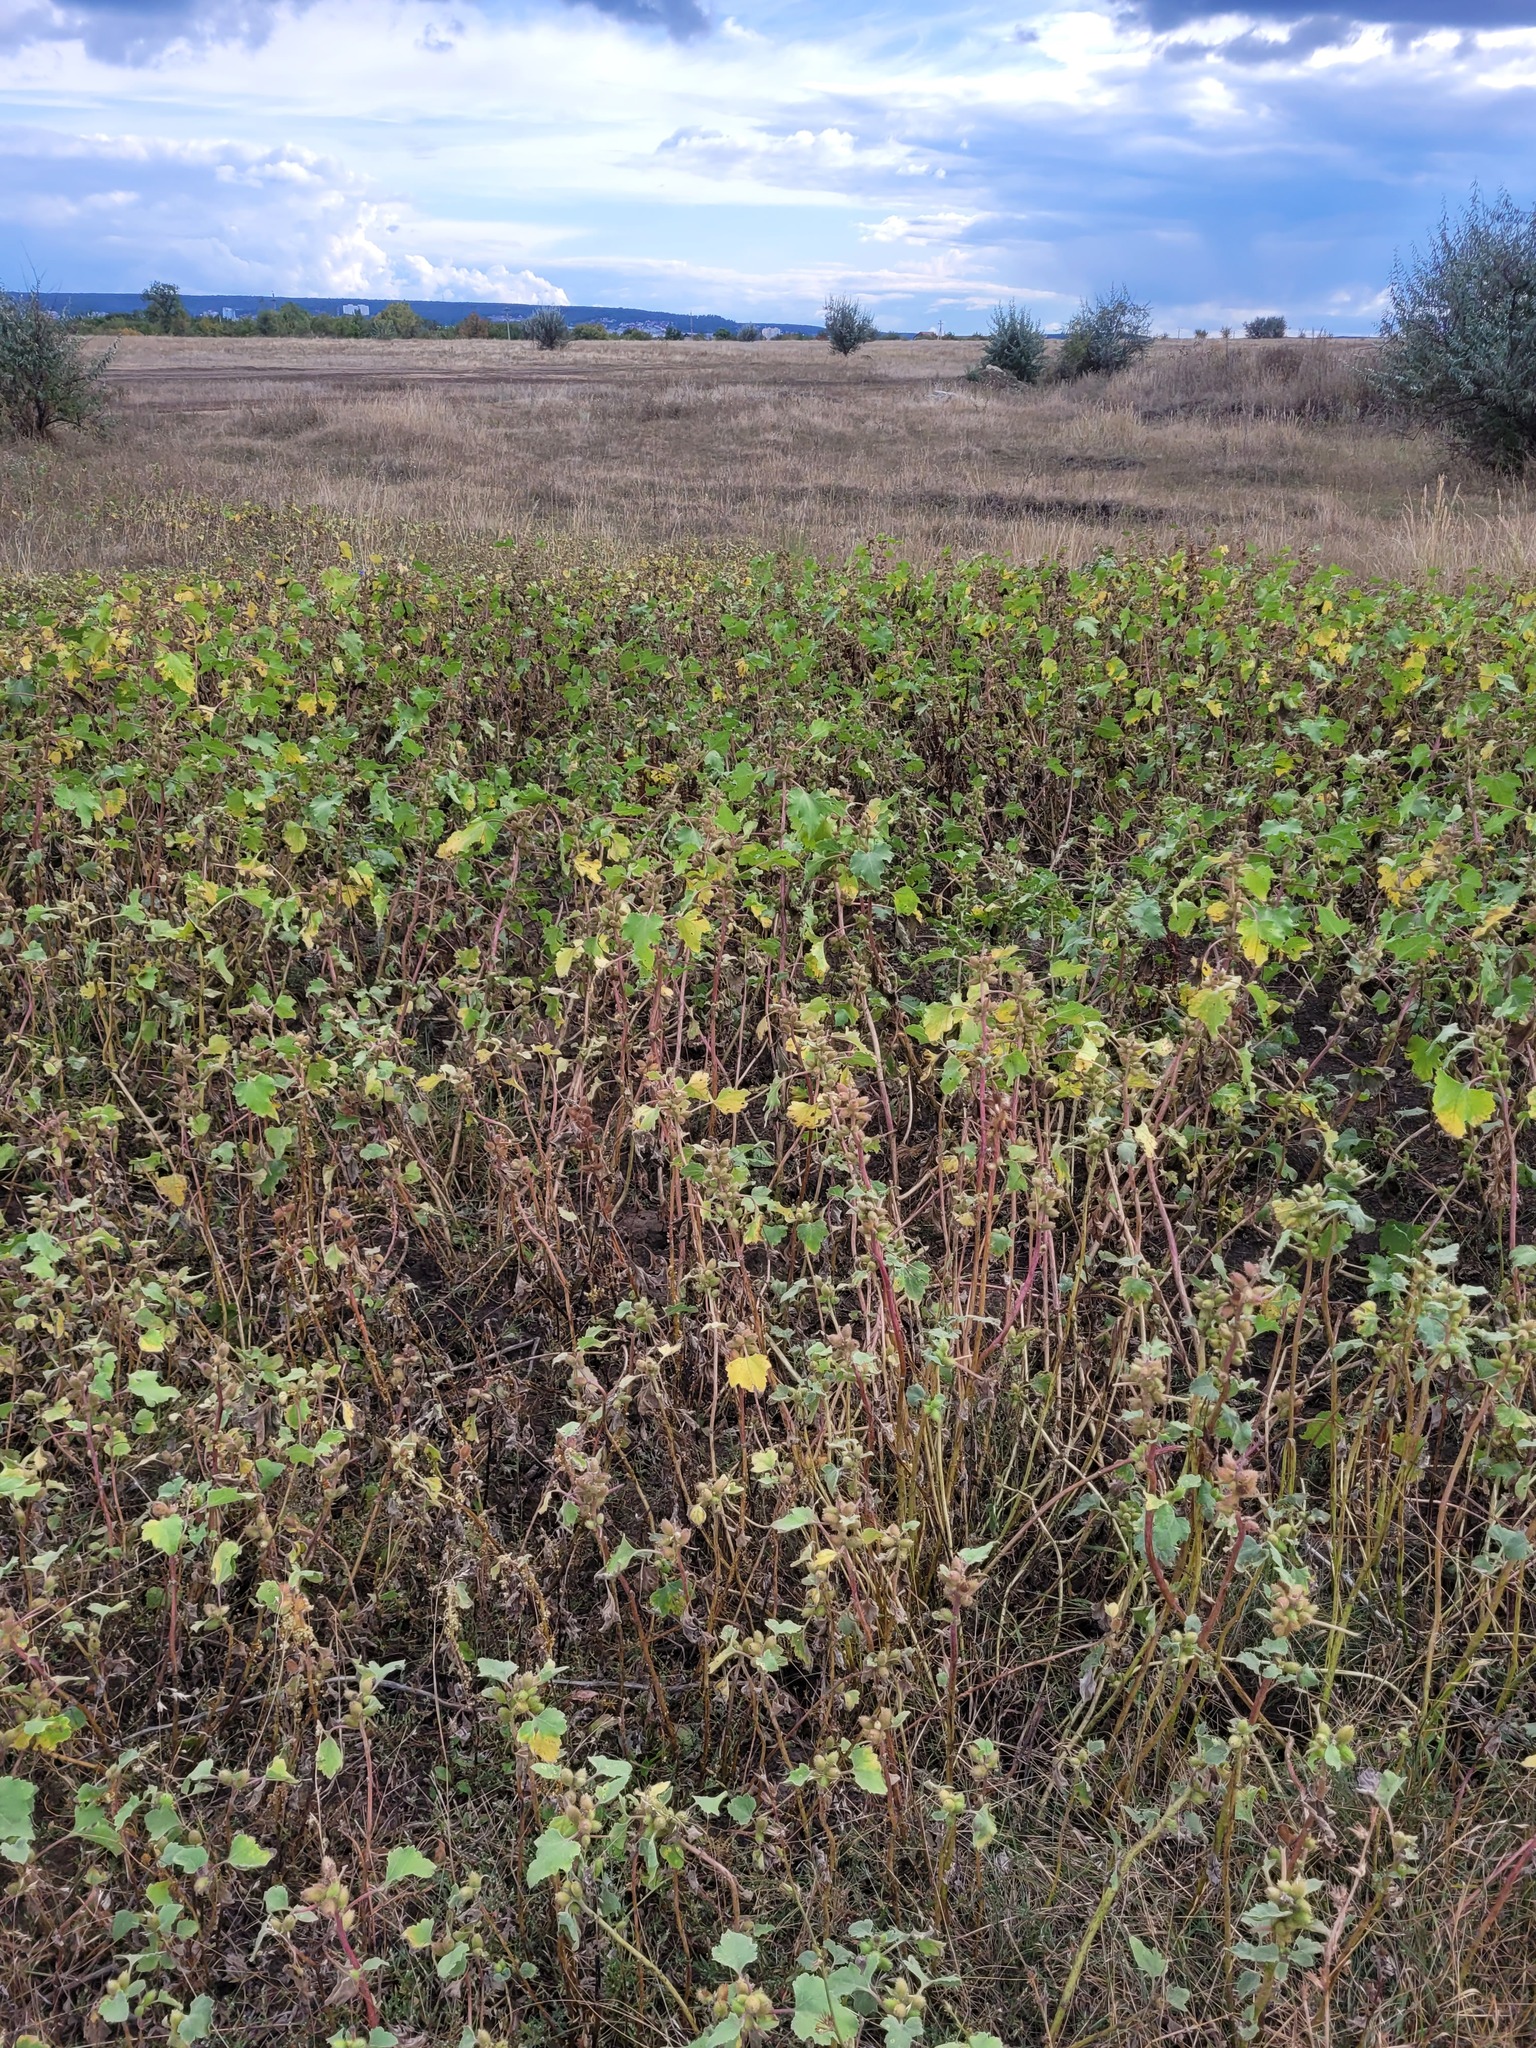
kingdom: Plantae
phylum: Tracheophyta
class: Magnoliopsida
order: Asterales
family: Asteraceae
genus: Xanthium
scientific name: Xanthium orientale
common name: Californian burr
